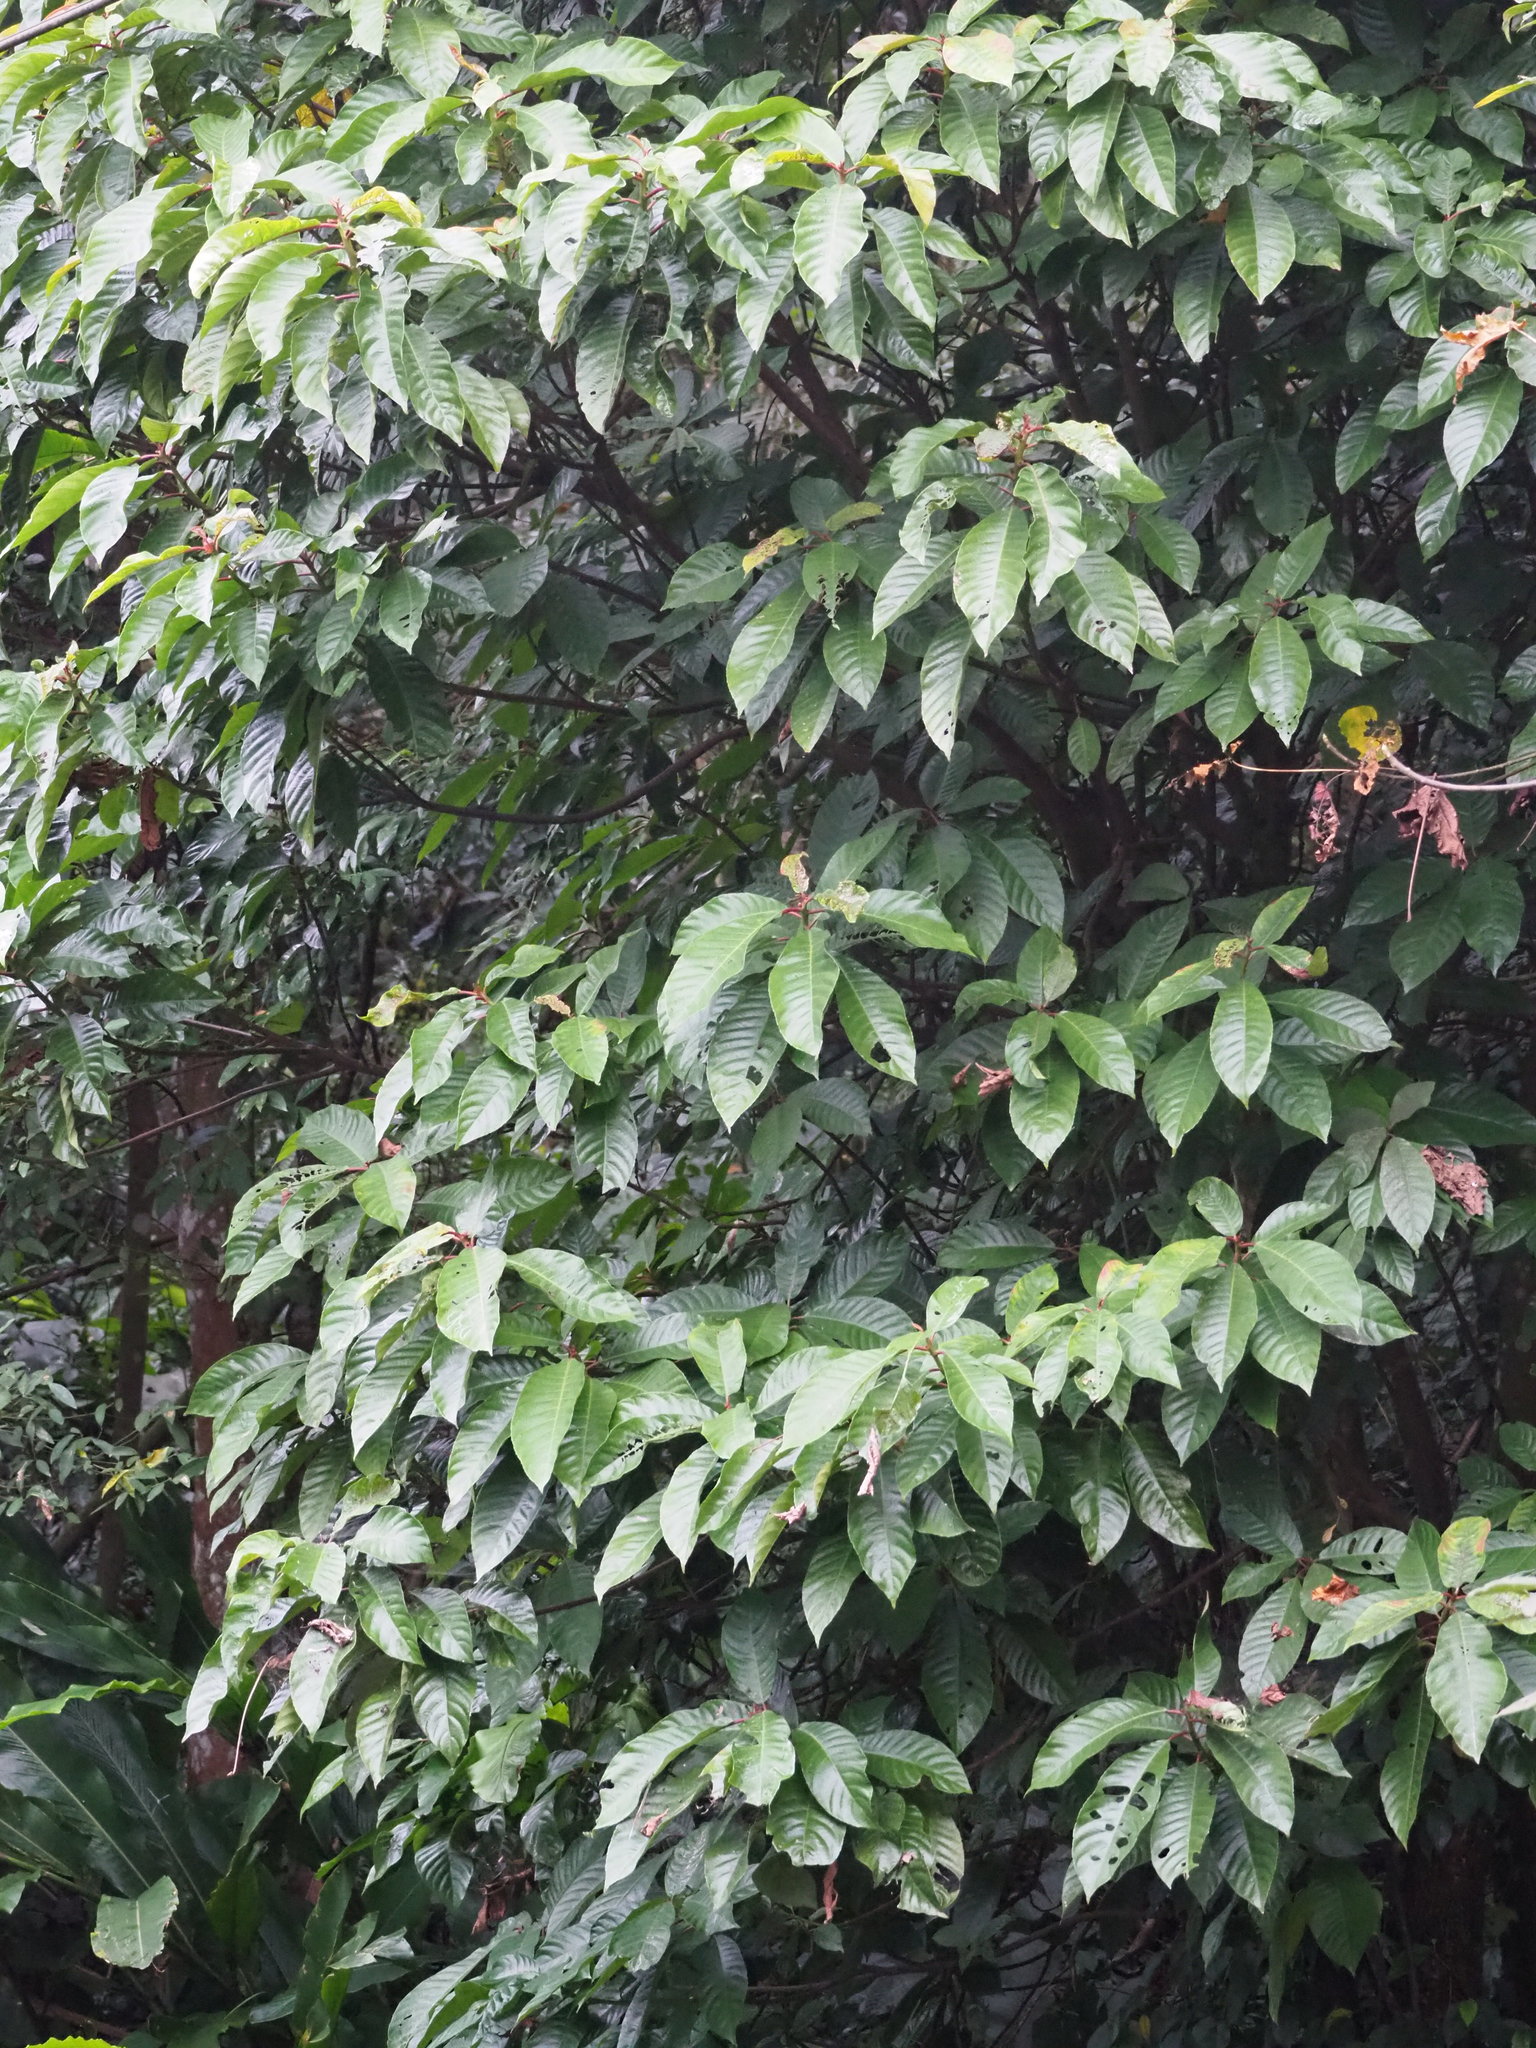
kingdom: Plantae
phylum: Tracheophyta
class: Magnoliopsida
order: Ericales
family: Actinidiaceae
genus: Saurauia
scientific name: Saurauia tristyla
